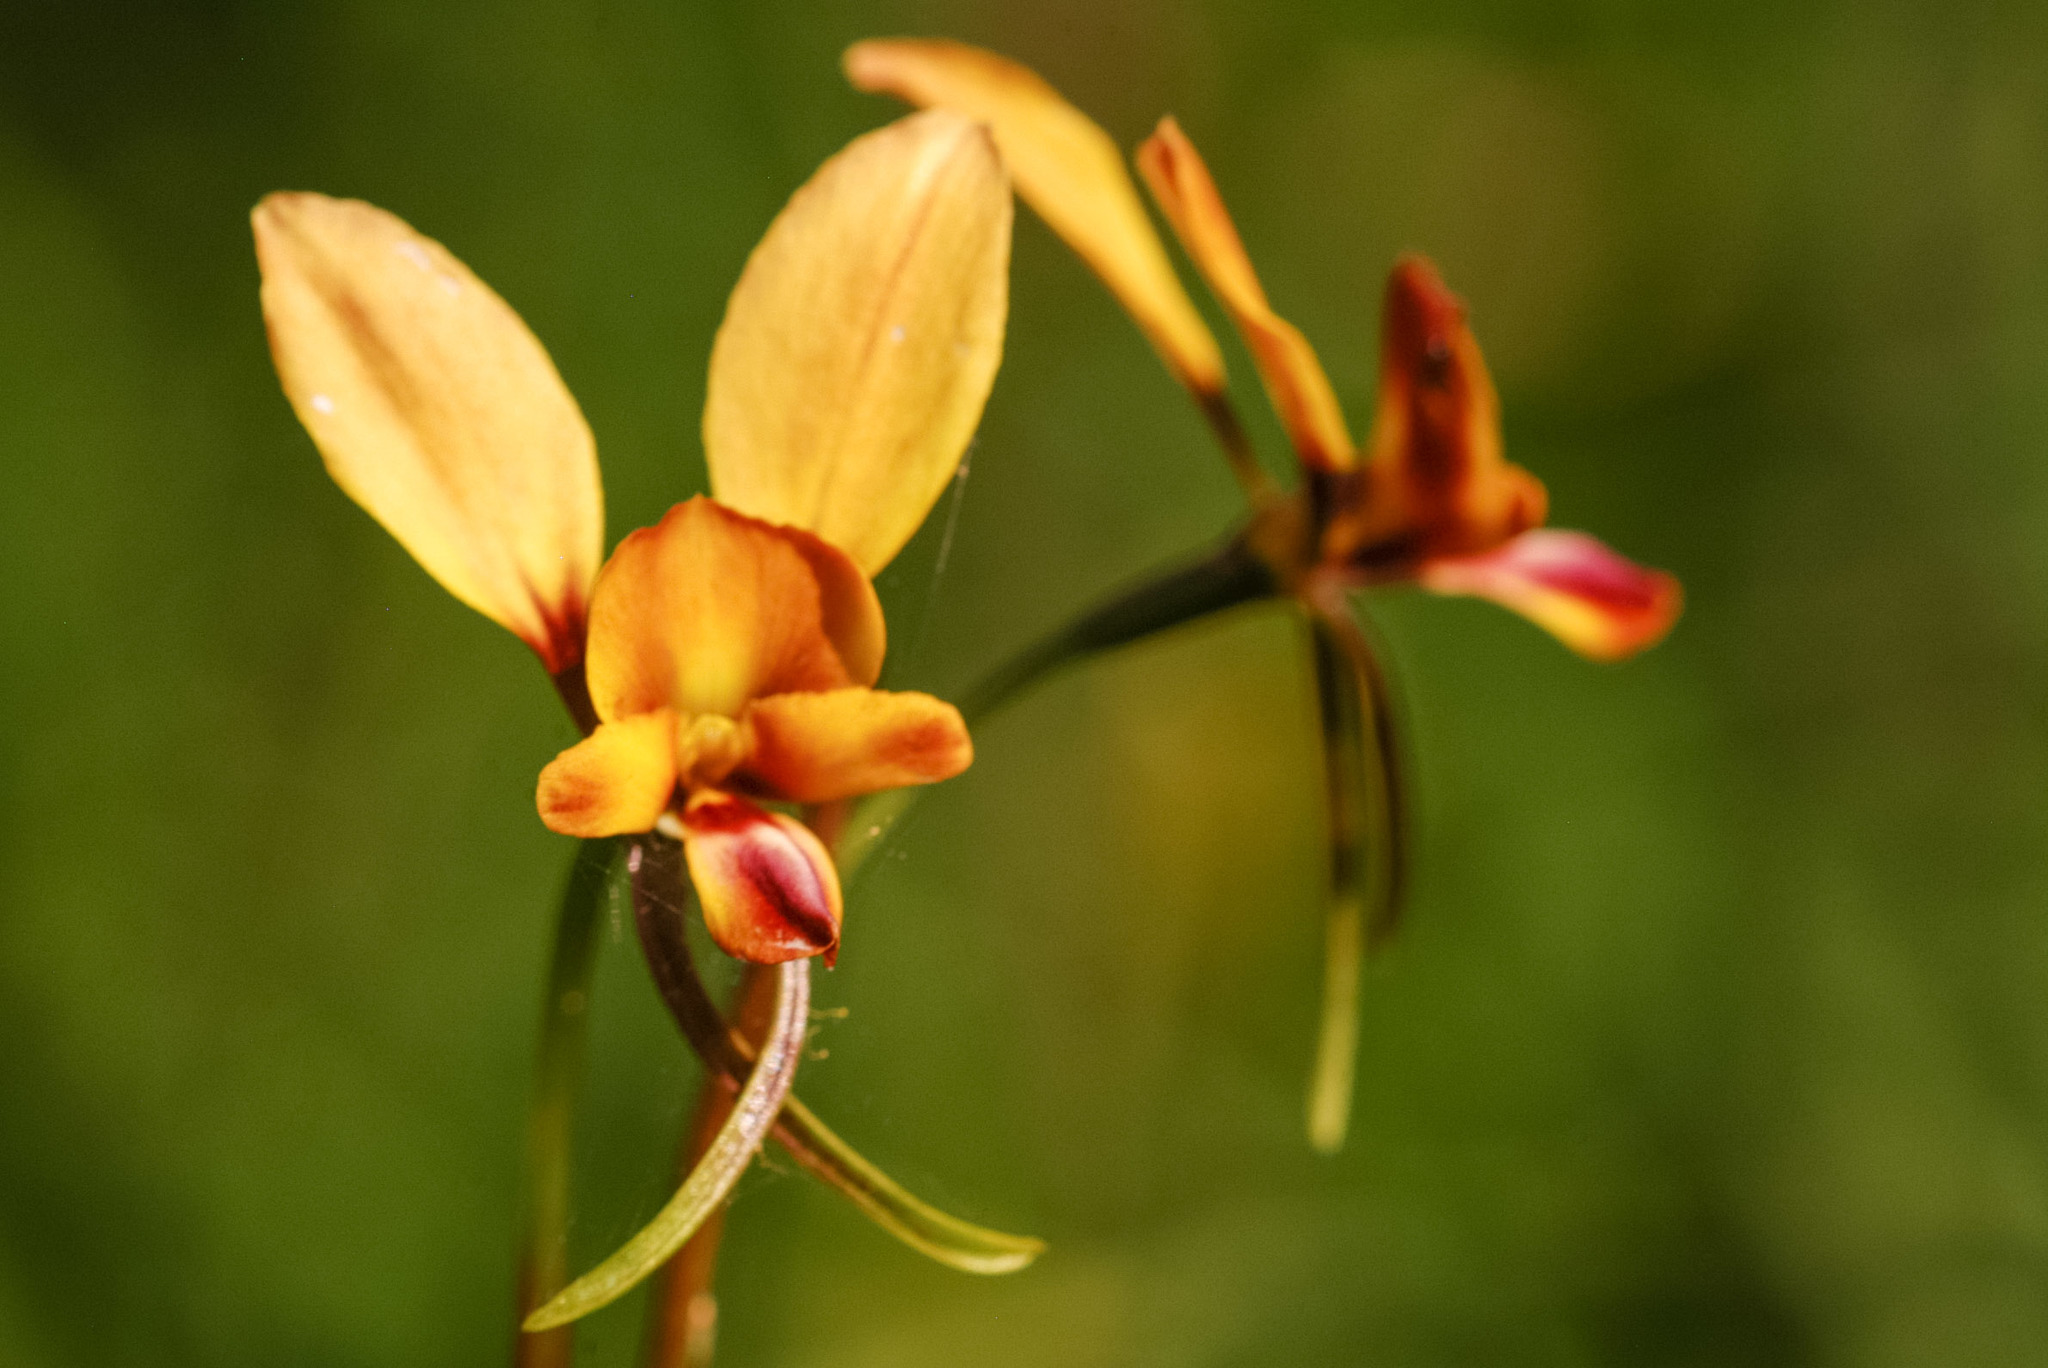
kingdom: Plantae
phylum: Tracheophyta
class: Liliopsida
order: Asparagales
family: Orchidaceae
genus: Diuris
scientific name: Diuris orientis
